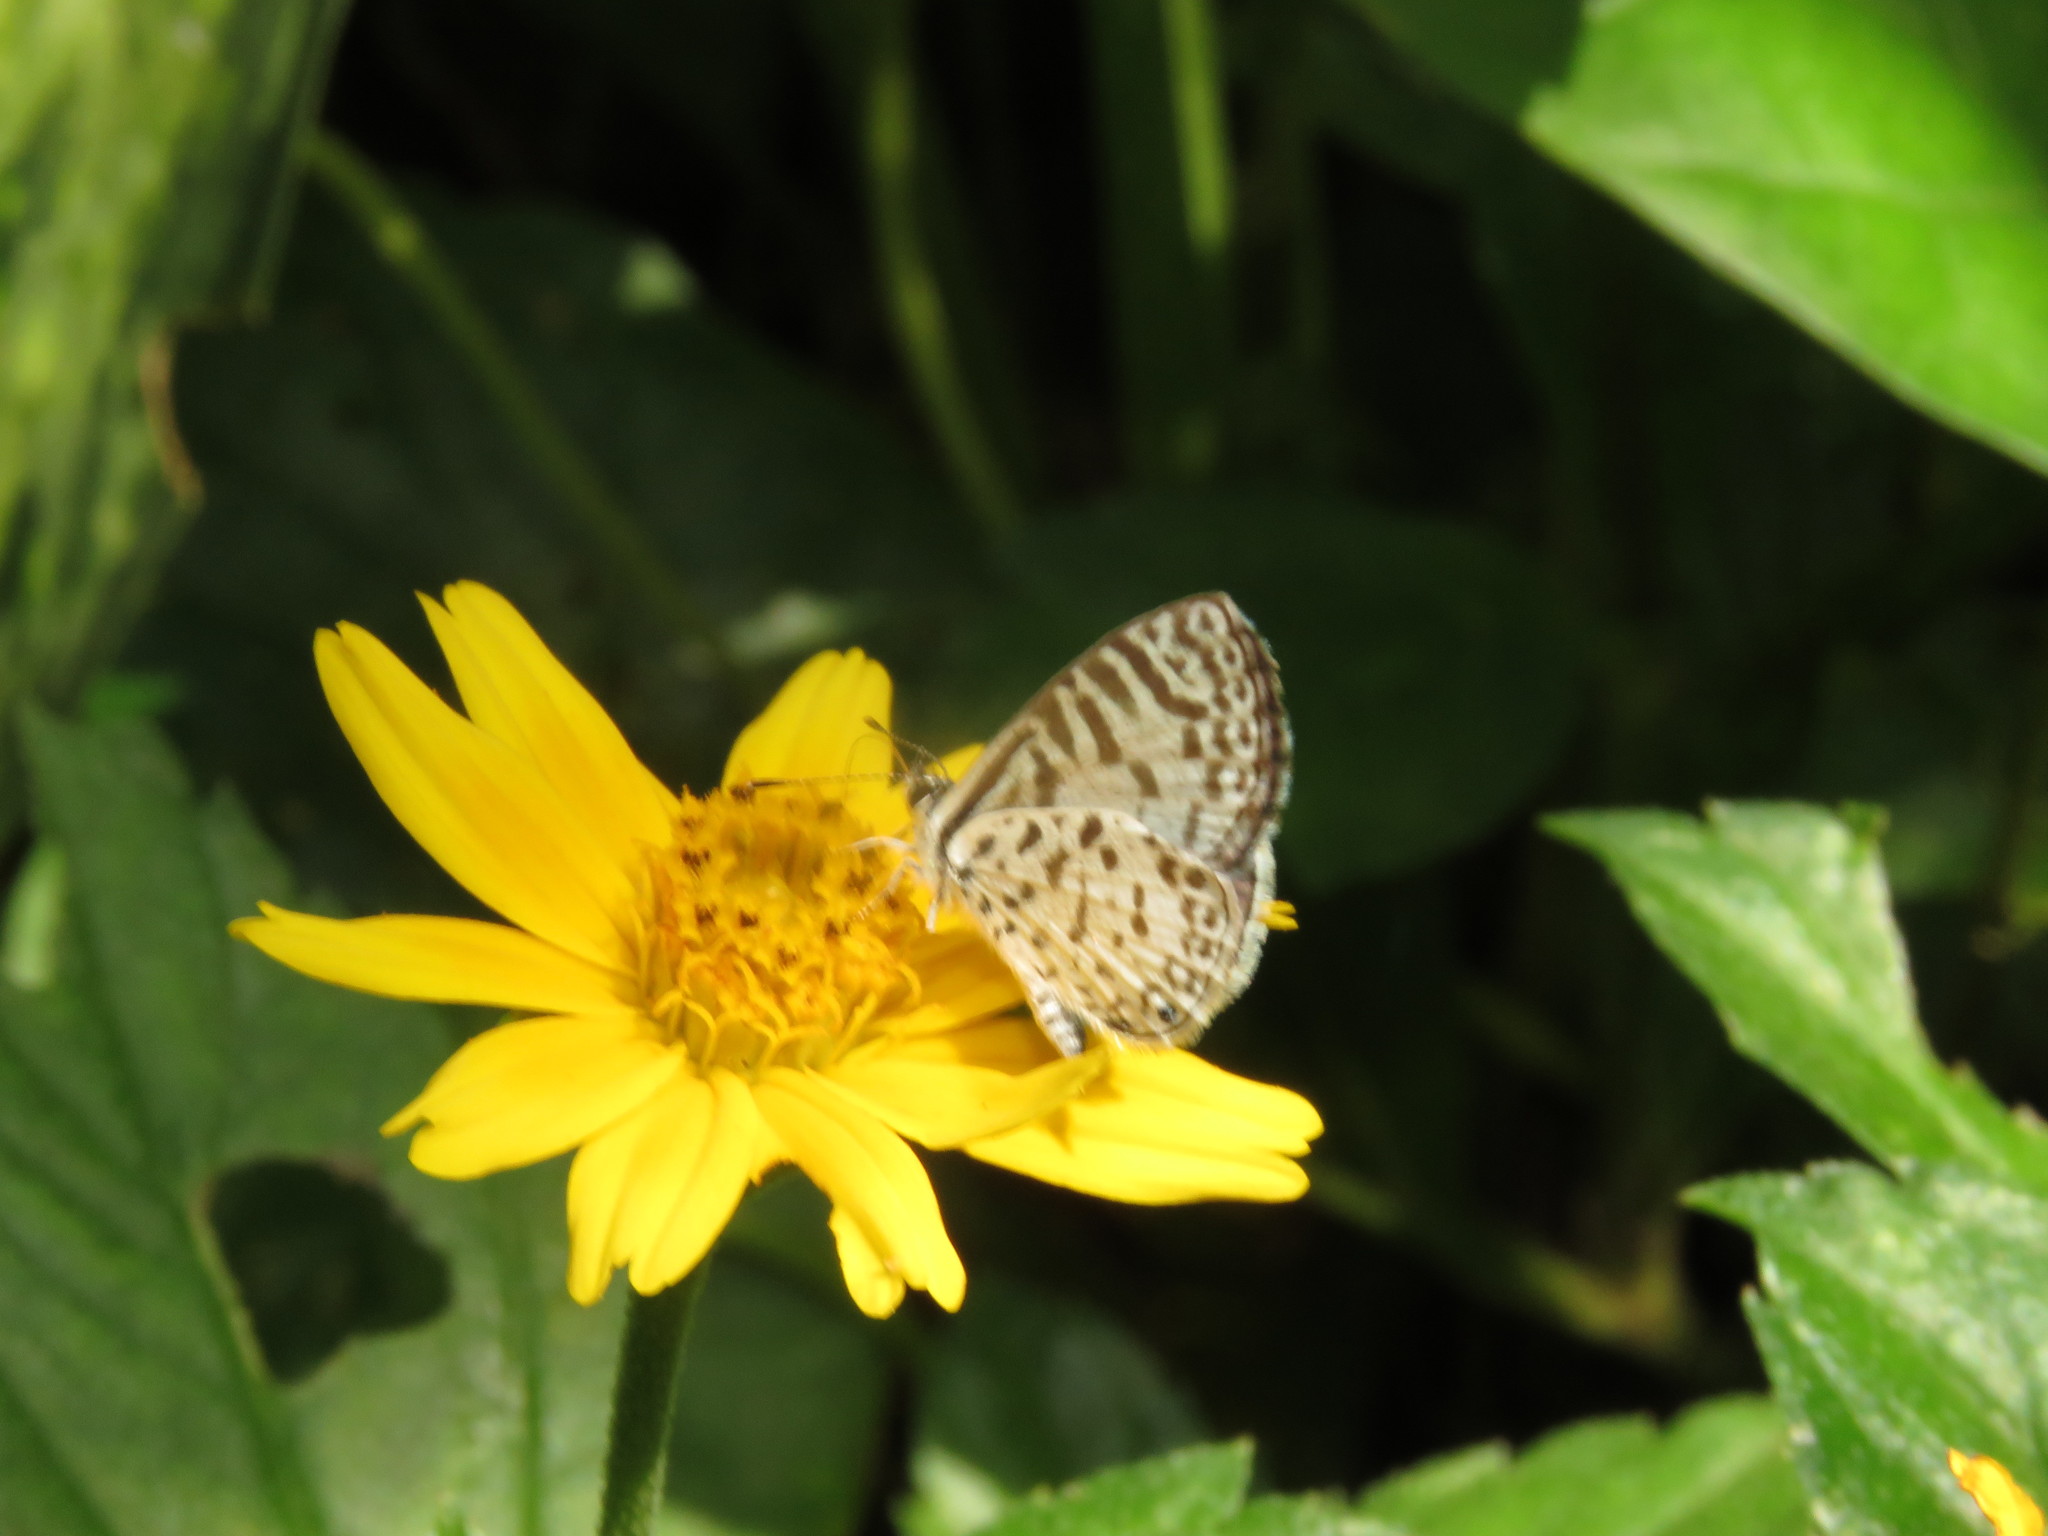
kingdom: Animalia
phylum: Arthropoda
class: Insecta
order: Lepidoptera
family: Lycaenidae
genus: Leptotes
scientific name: Leptotes cassius
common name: Cassius blue
